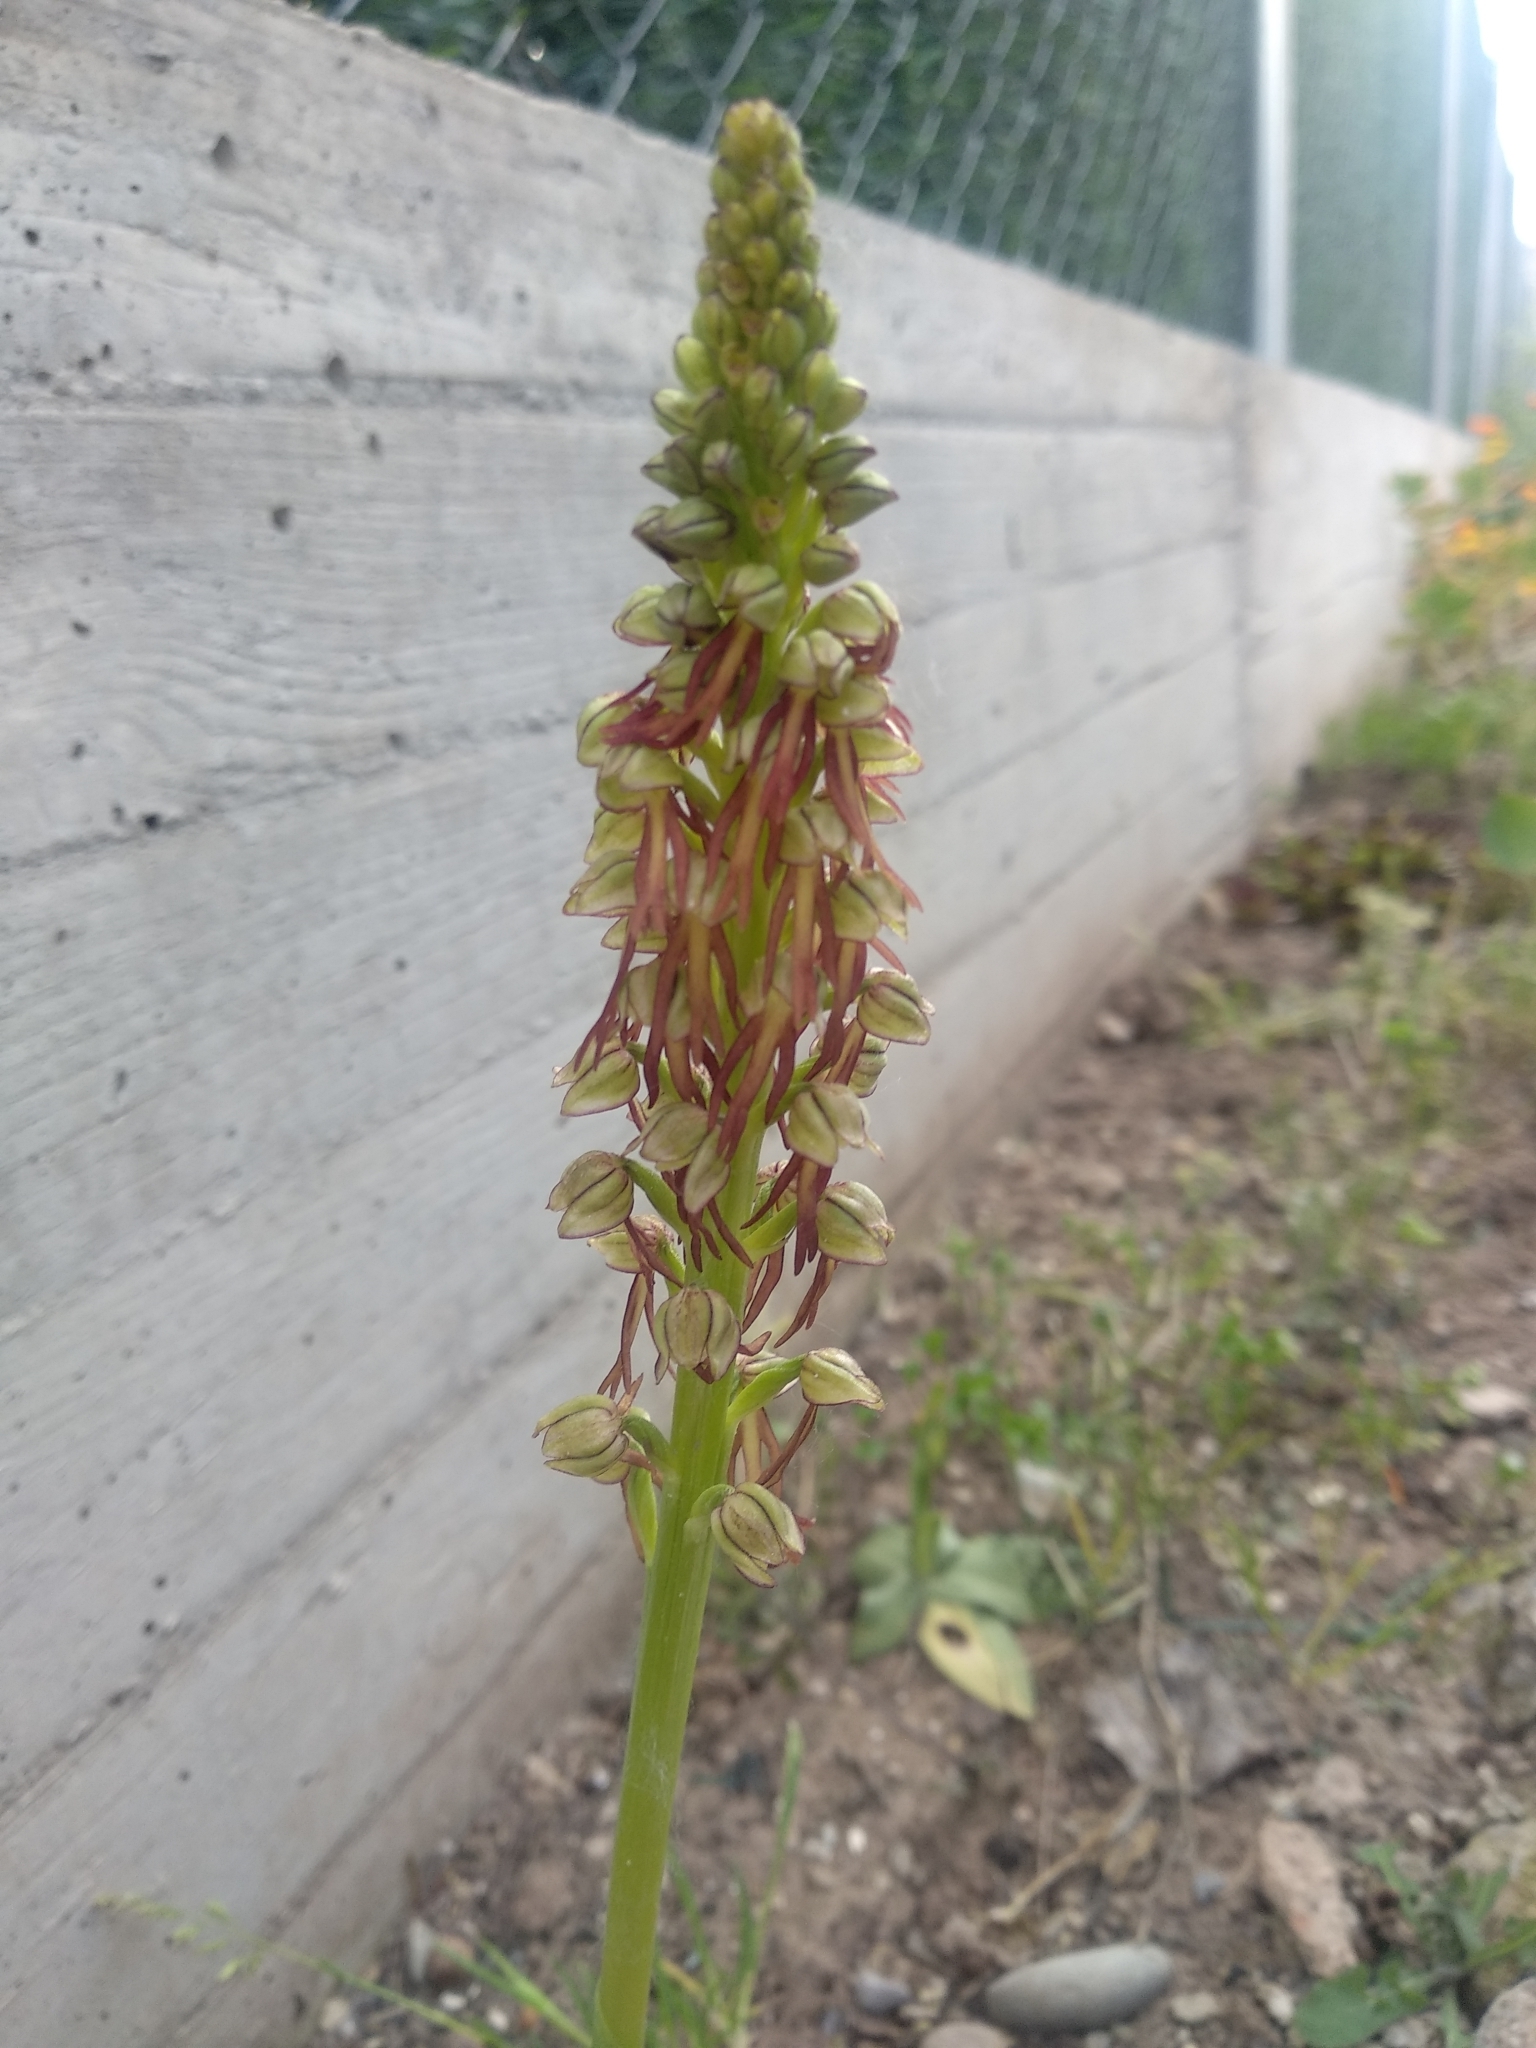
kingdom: Plantae
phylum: Tracheophyta
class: Liliopsida
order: Asparagales
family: Orchidaceae
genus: Orchis
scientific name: Orchis anthropophora
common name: Man orchid
